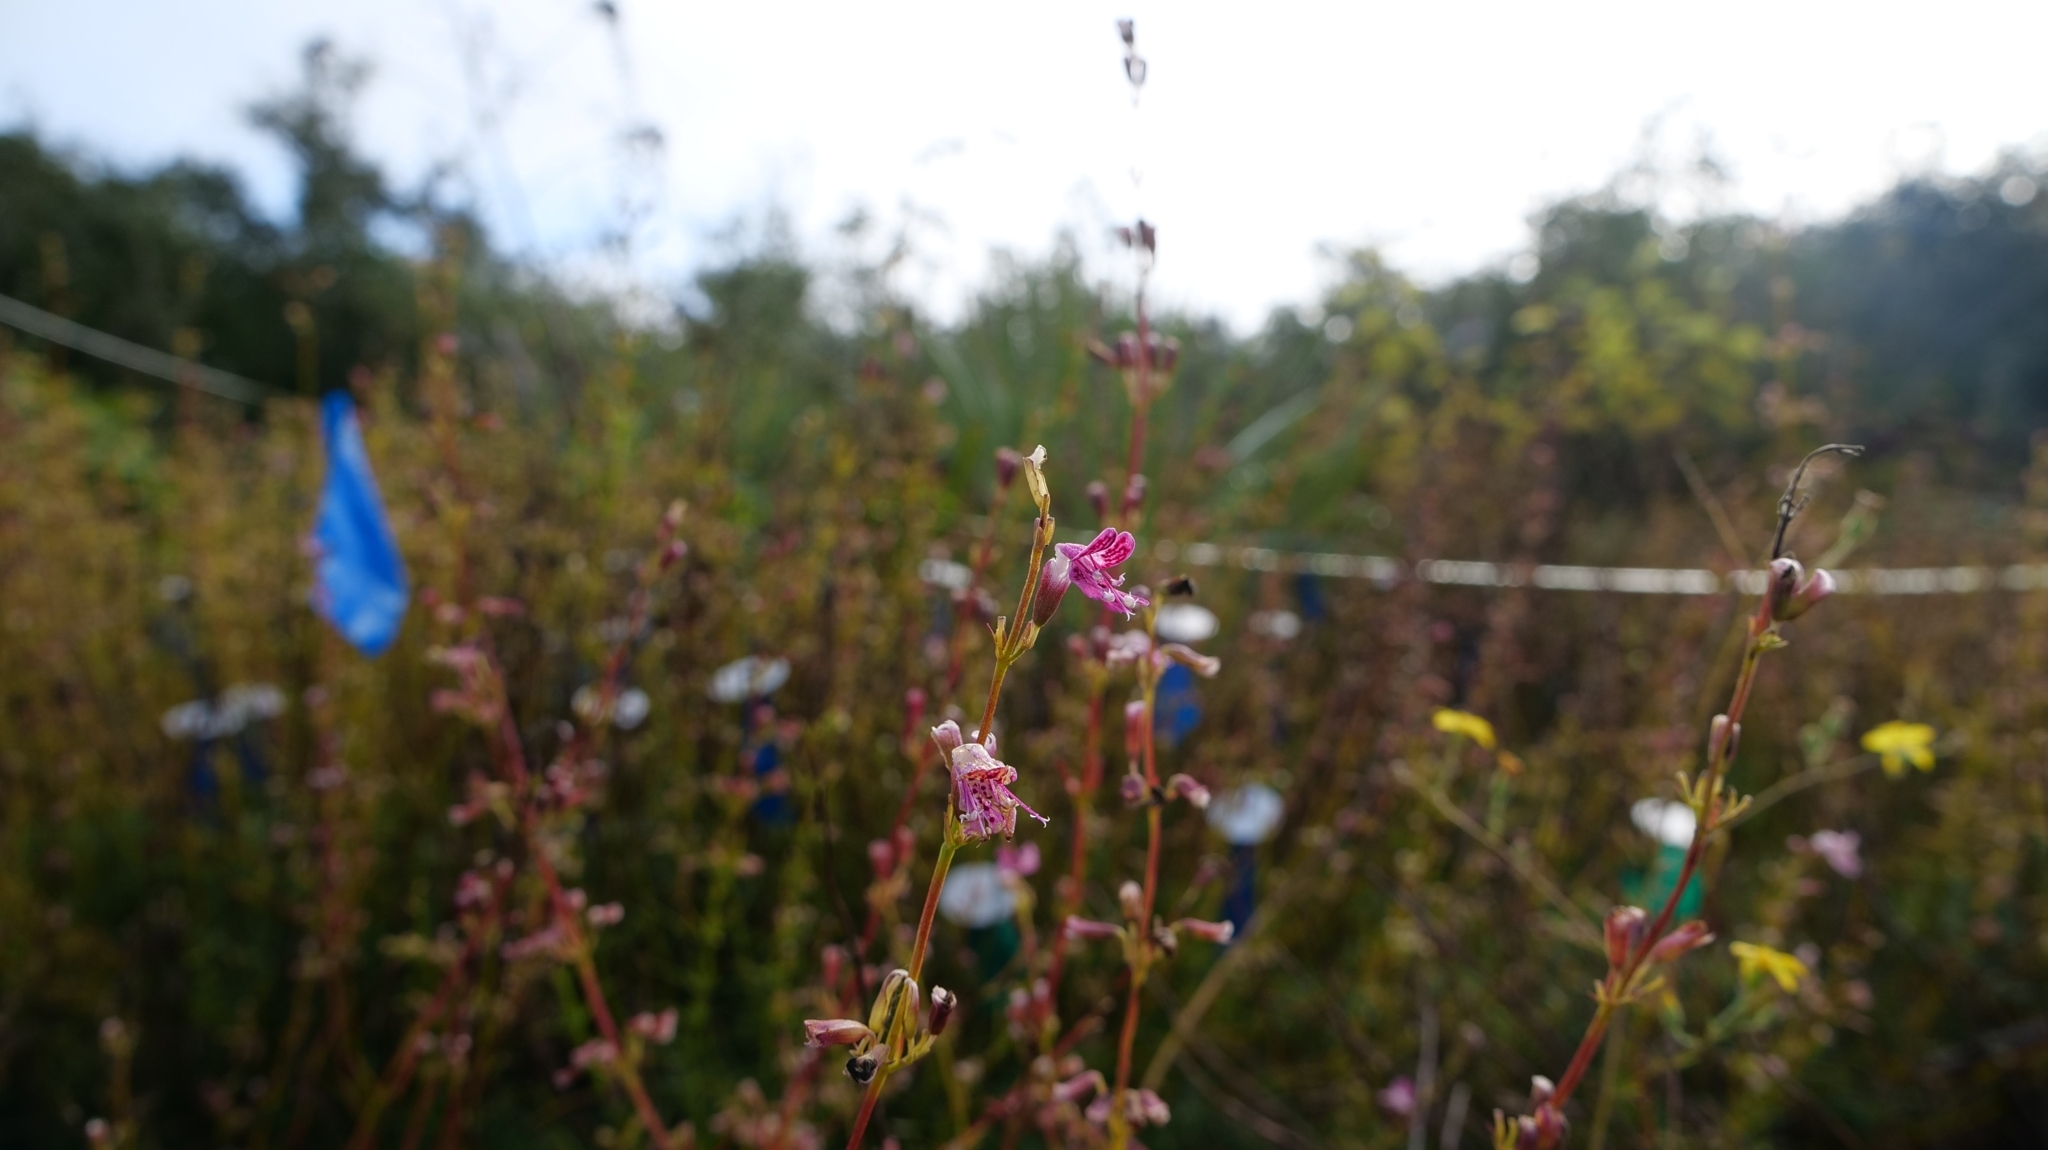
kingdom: Plantae
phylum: Tracheophyta
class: Magnoliopsida
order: Lamiales
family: Lamiaceae
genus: Dicerandra
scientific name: Dicerandra frutescens
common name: Scrub-mint
